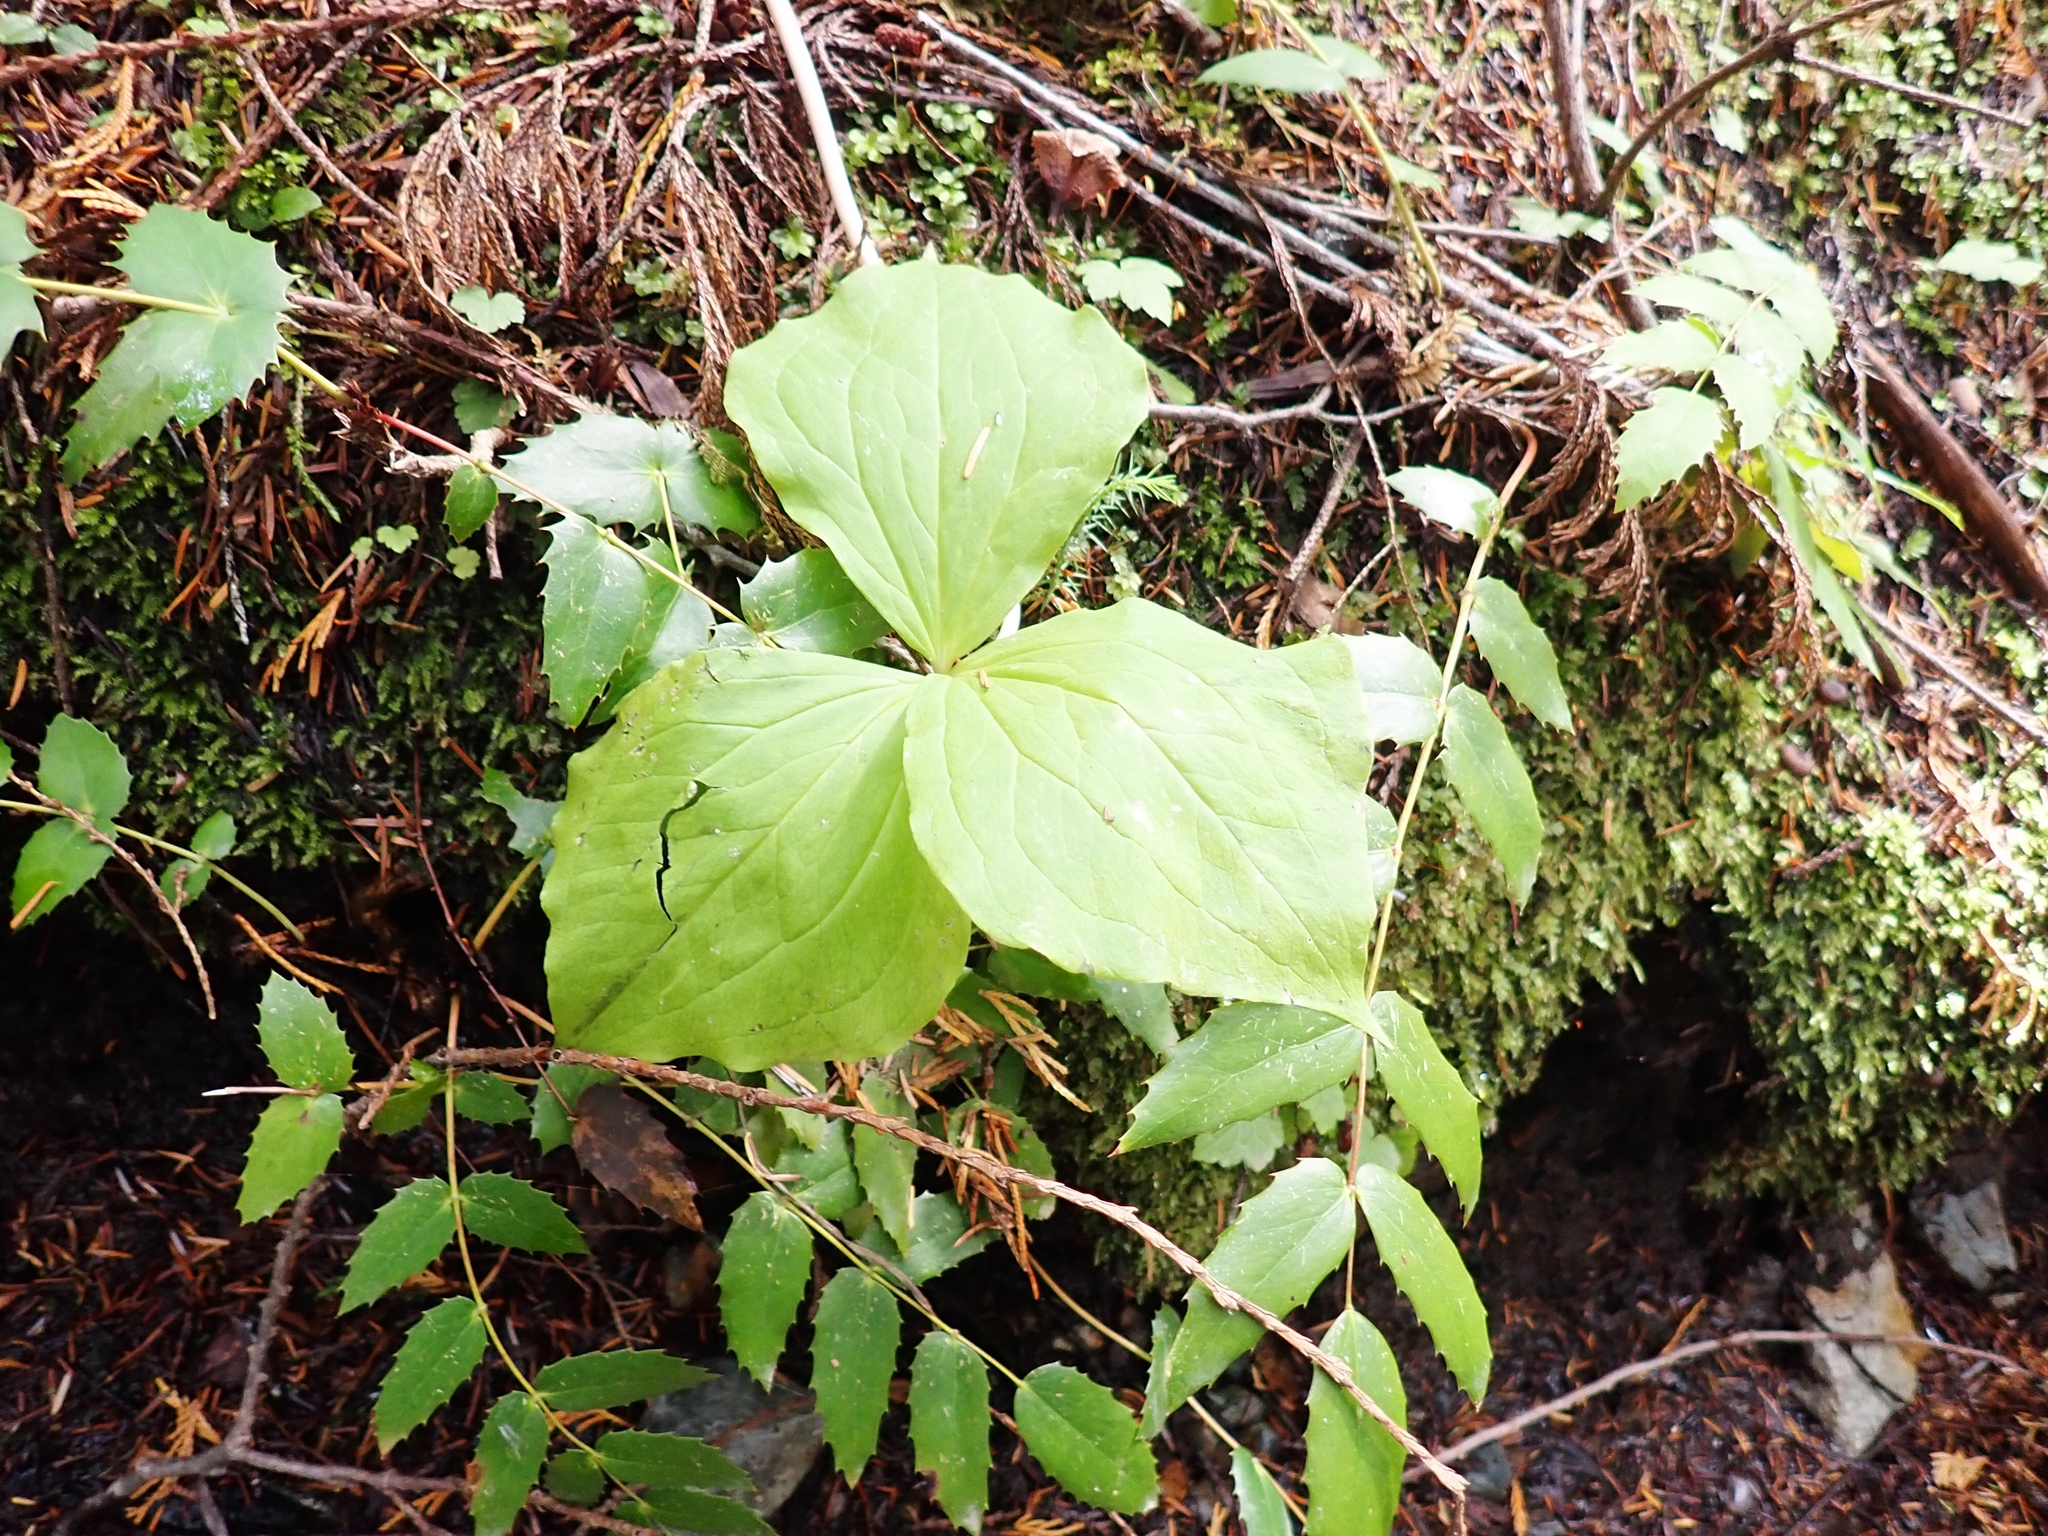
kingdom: Plantae
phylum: Tracheophyta
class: Liliopsida
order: Liliales
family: Melanthiaceae
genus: Trillium
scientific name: Trillium ovatum
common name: Pacific trillium
